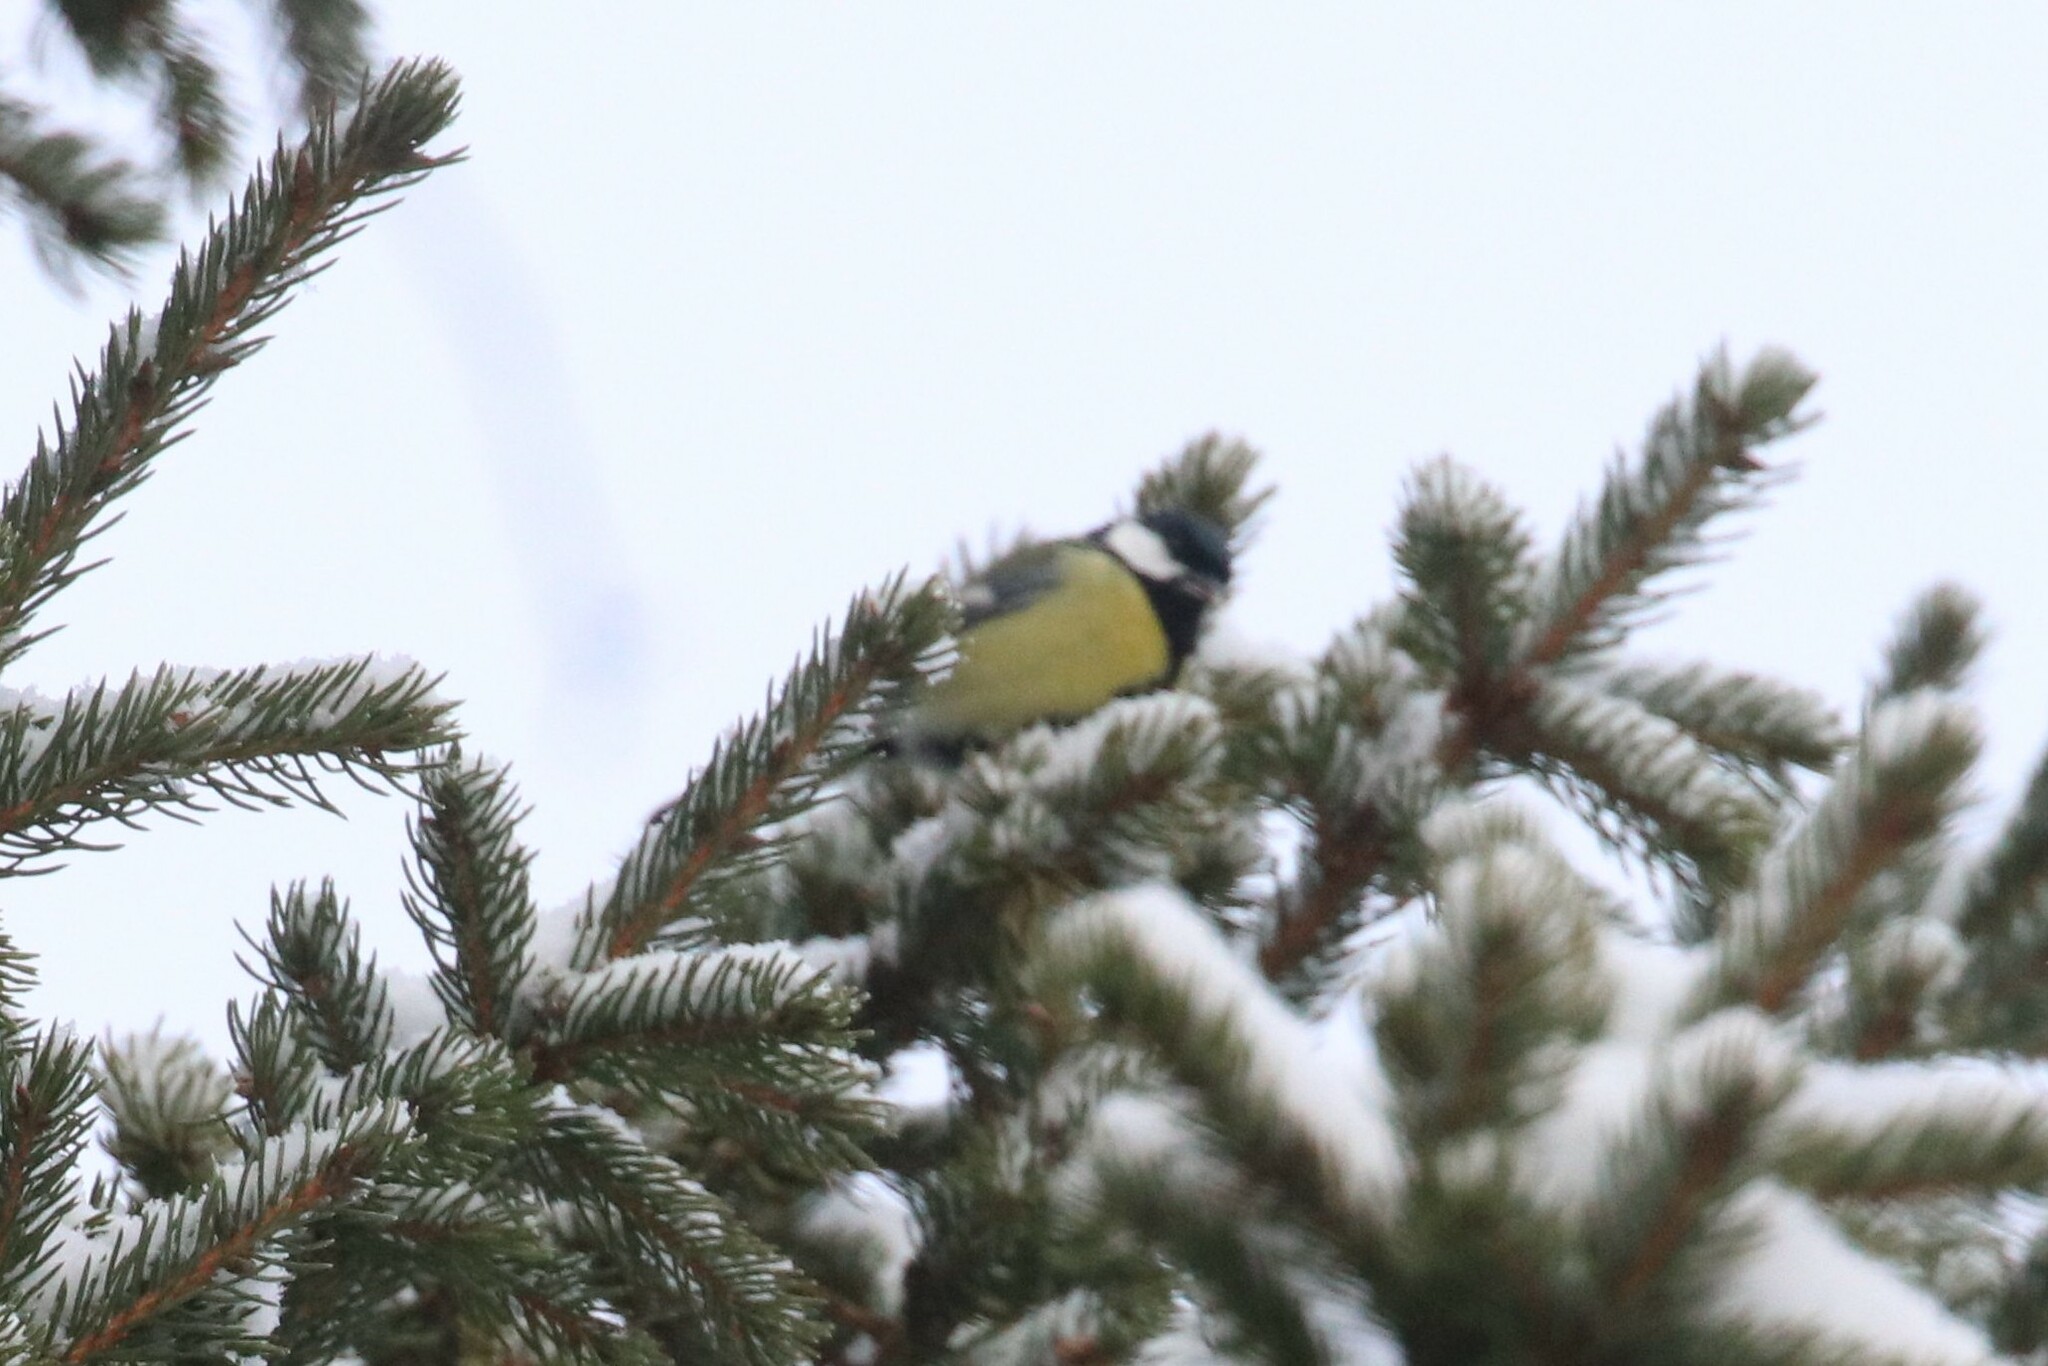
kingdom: Animalia
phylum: Chordata
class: Aves
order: Passeriformes
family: Paridae
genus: Parus
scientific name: Parus major
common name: Great tit
